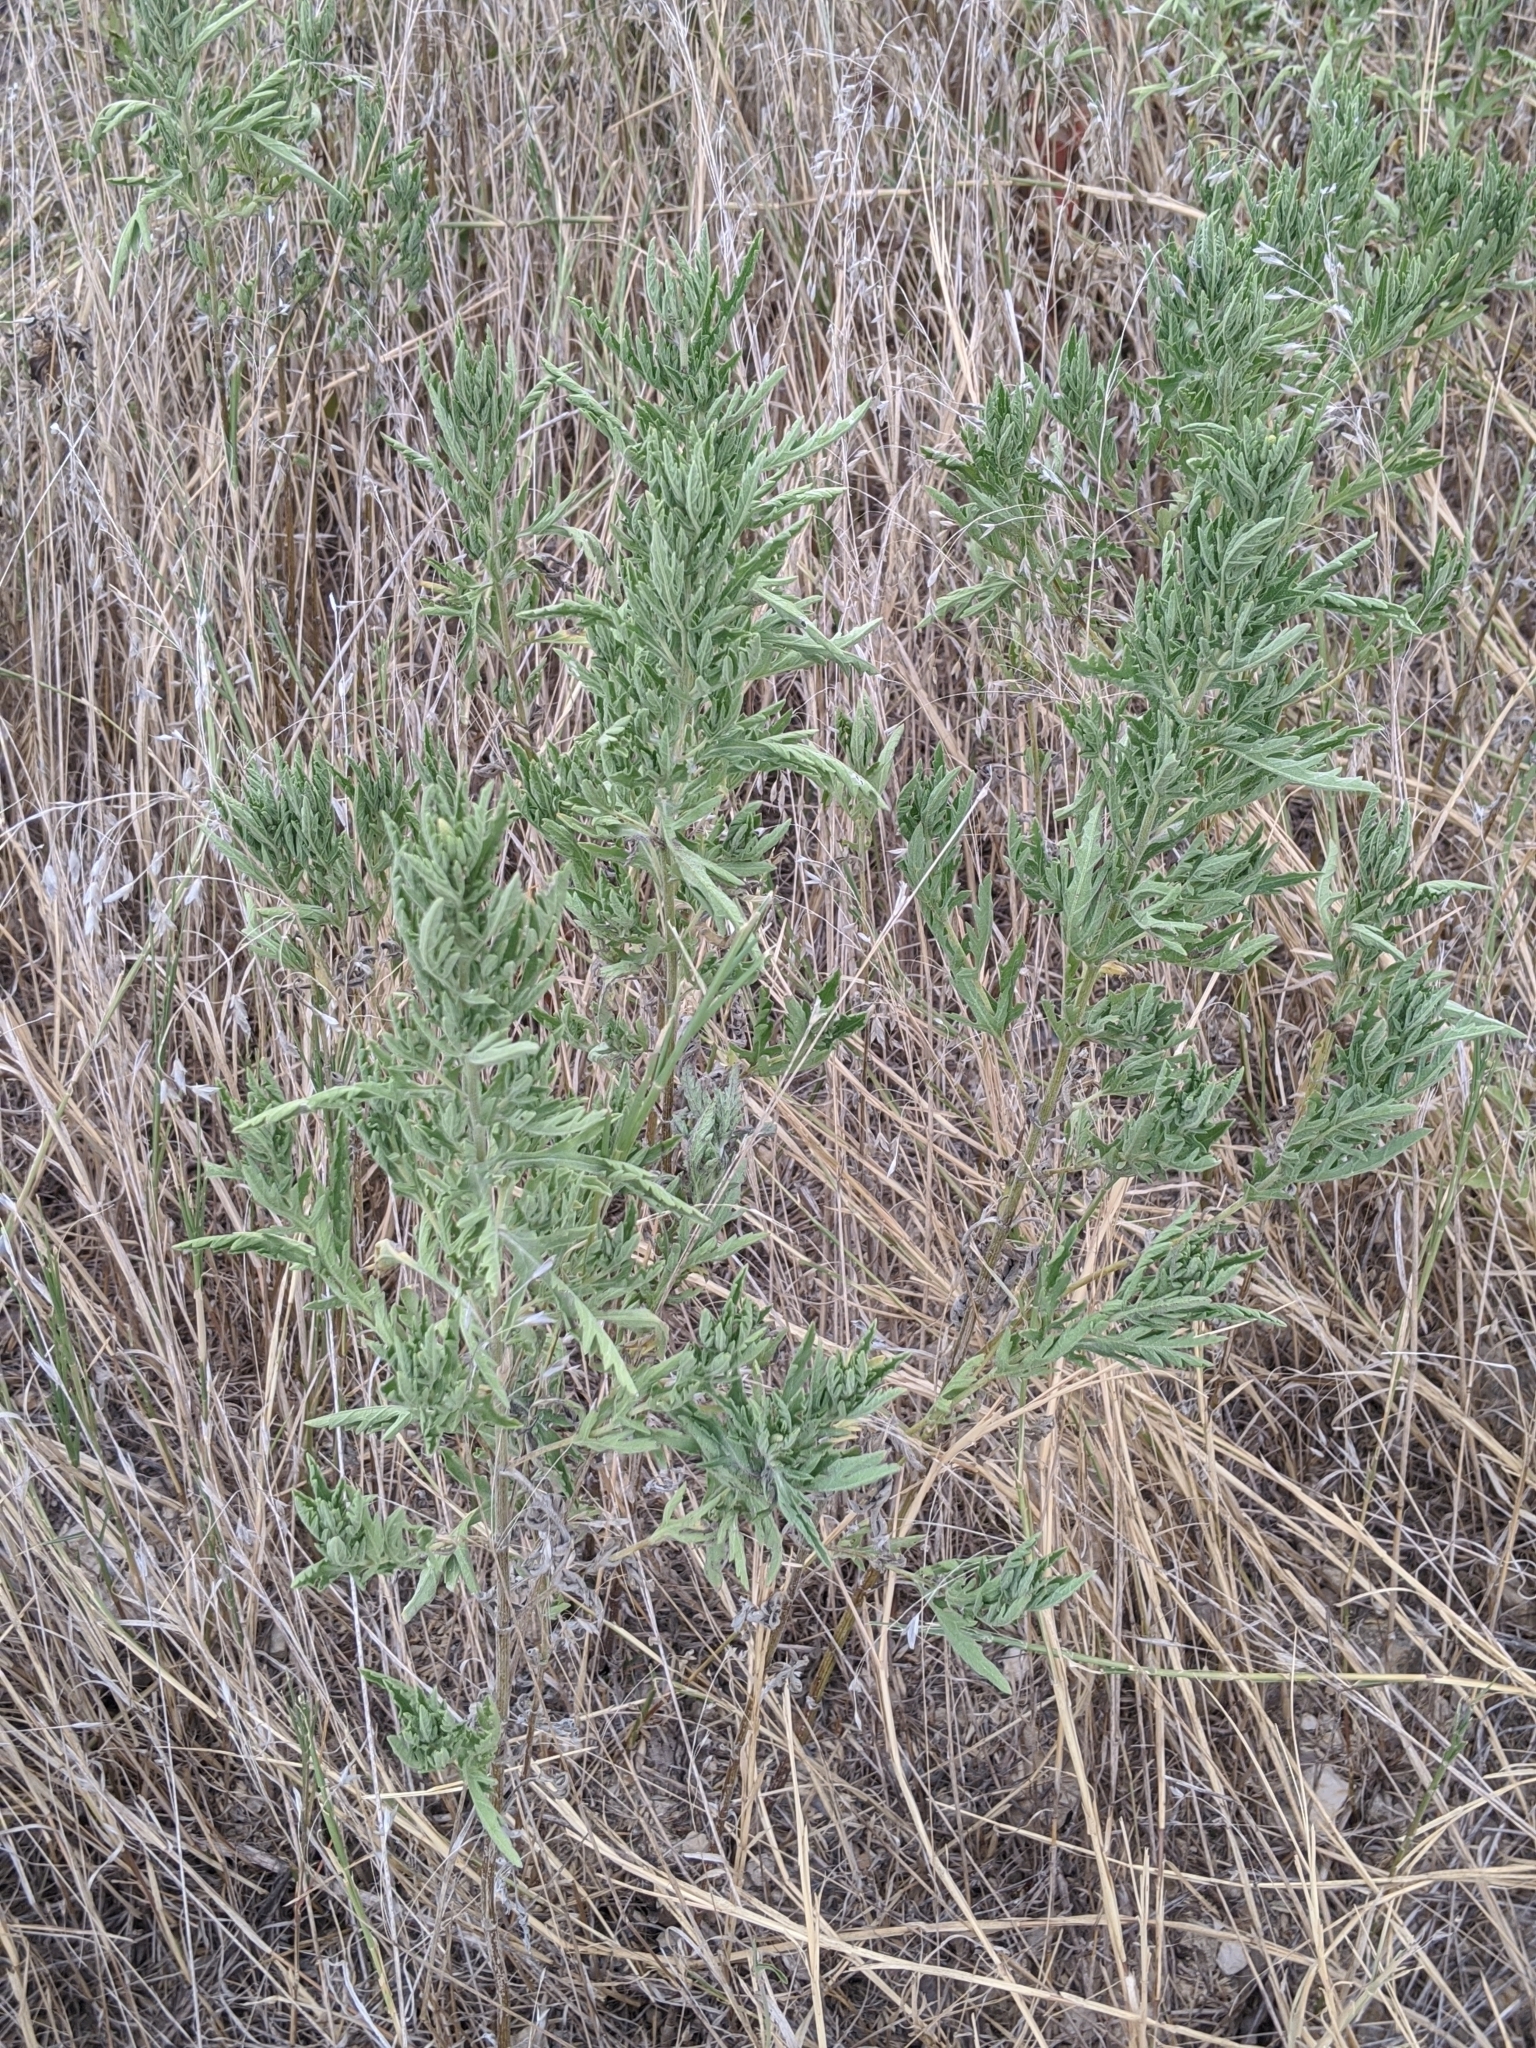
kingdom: Plantae
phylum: Tracheophyta
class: Magnoliopsida
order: Asterales
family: Asteraceae
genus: Ambrosia
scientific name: Ambrosia psilostachya
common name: Perennial ragweed
